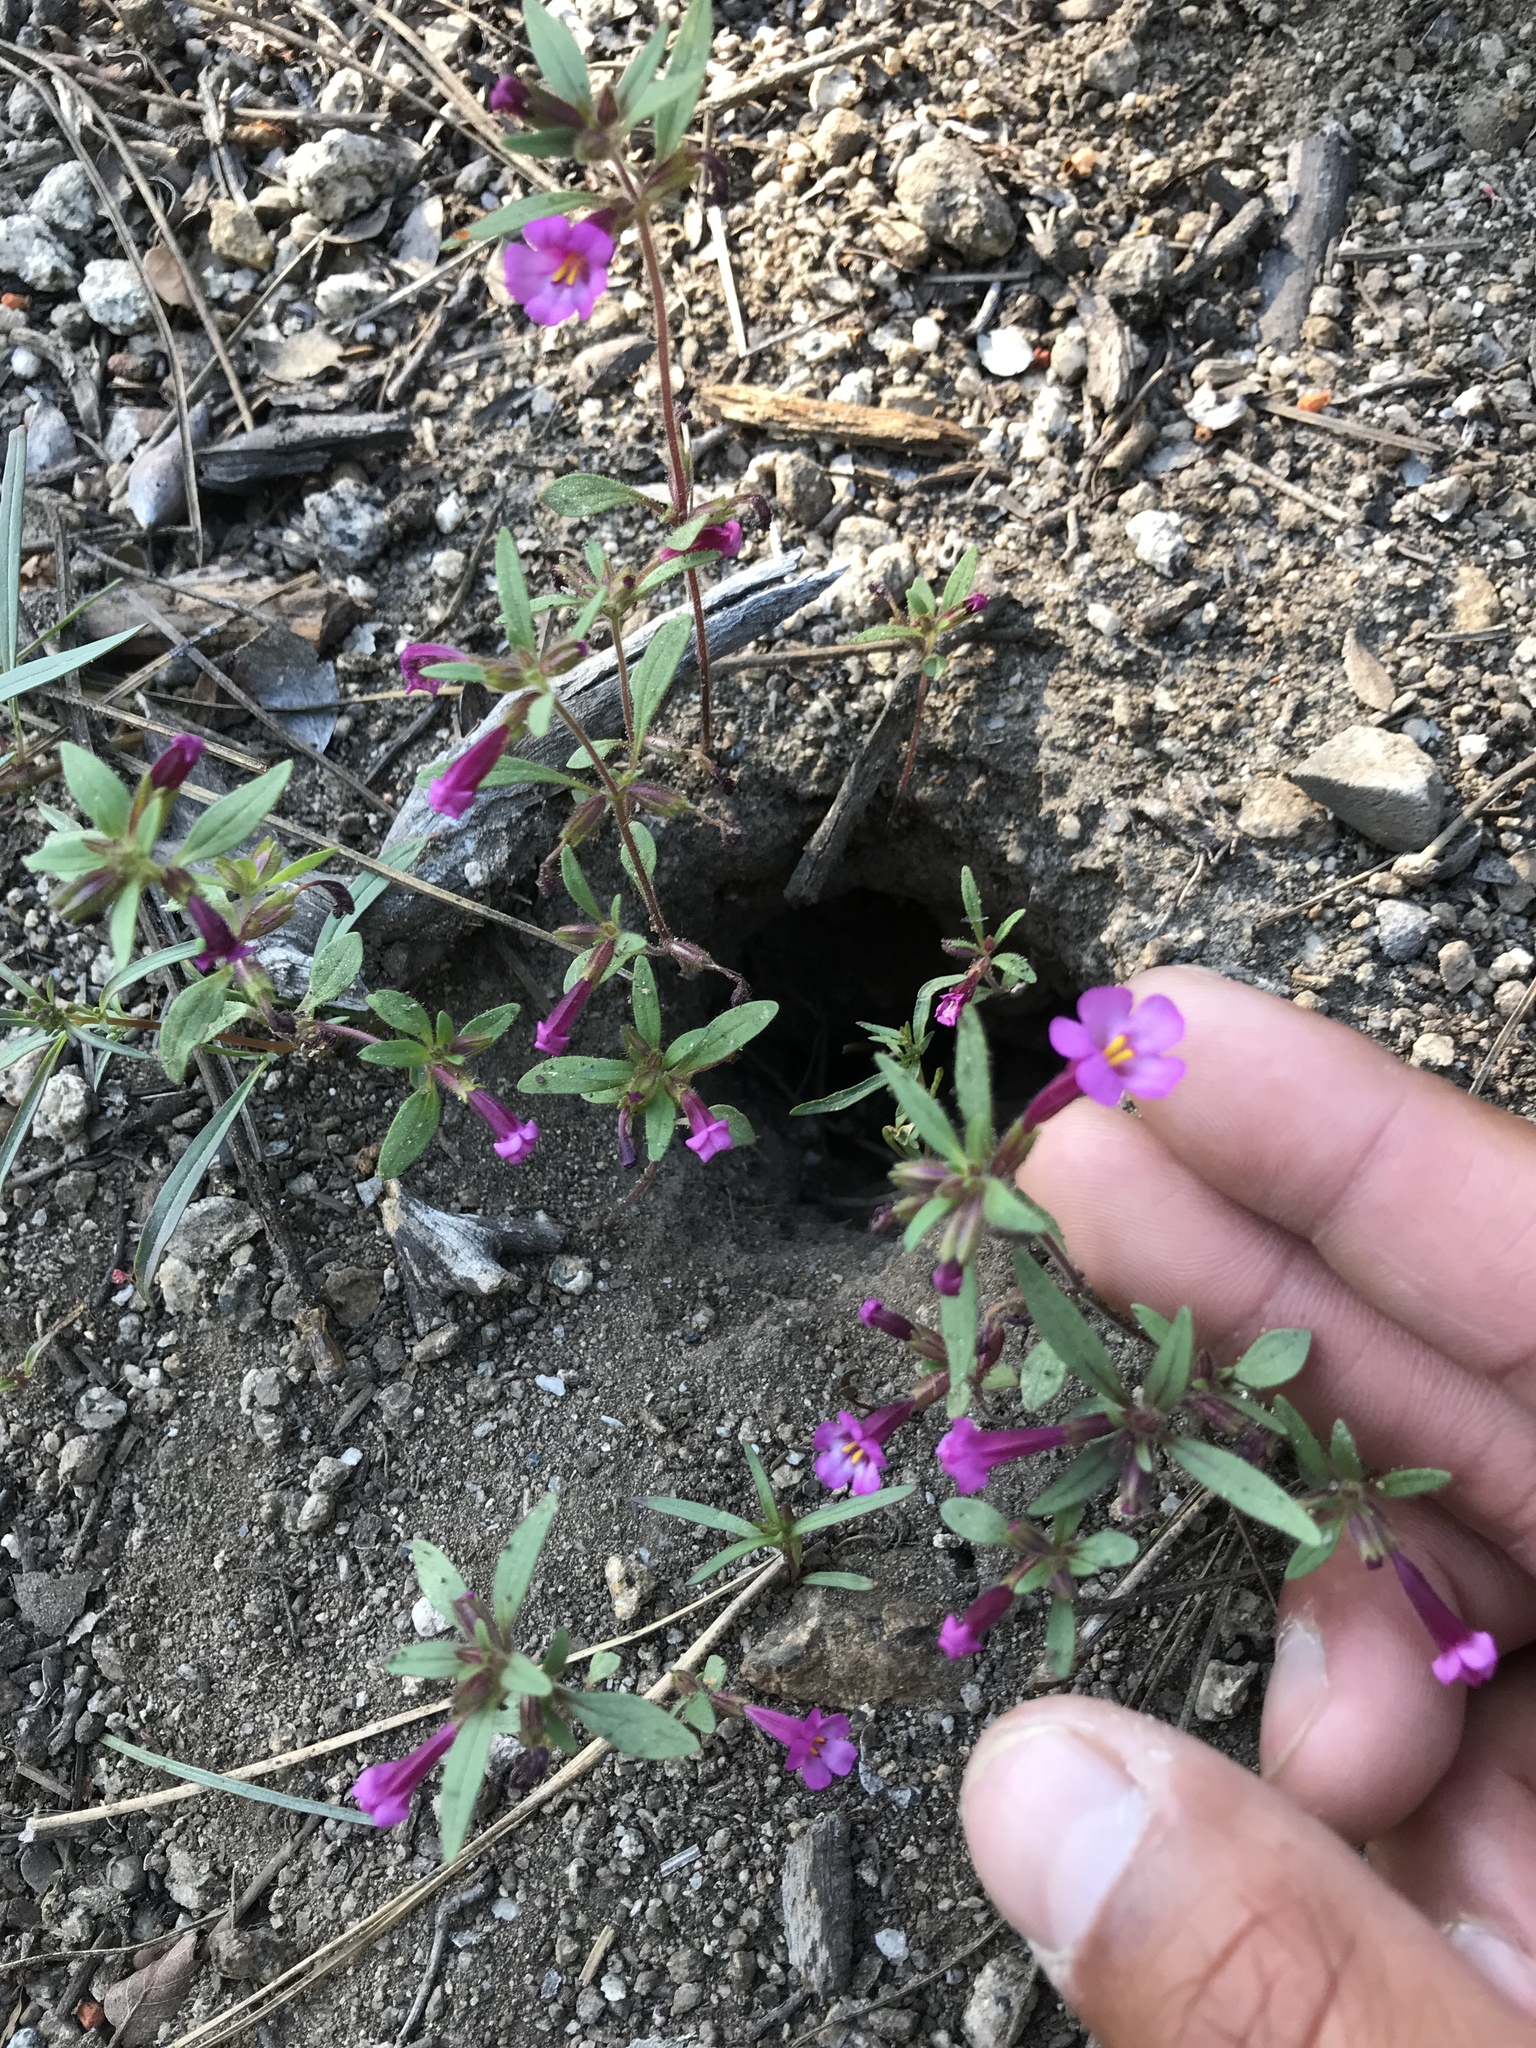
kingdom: Plantae
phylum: Tracheophyta
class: Magnoliopsida
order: Lamiales
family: Phrymaceae
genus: Diplacus
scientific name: Diplacus torreyi
